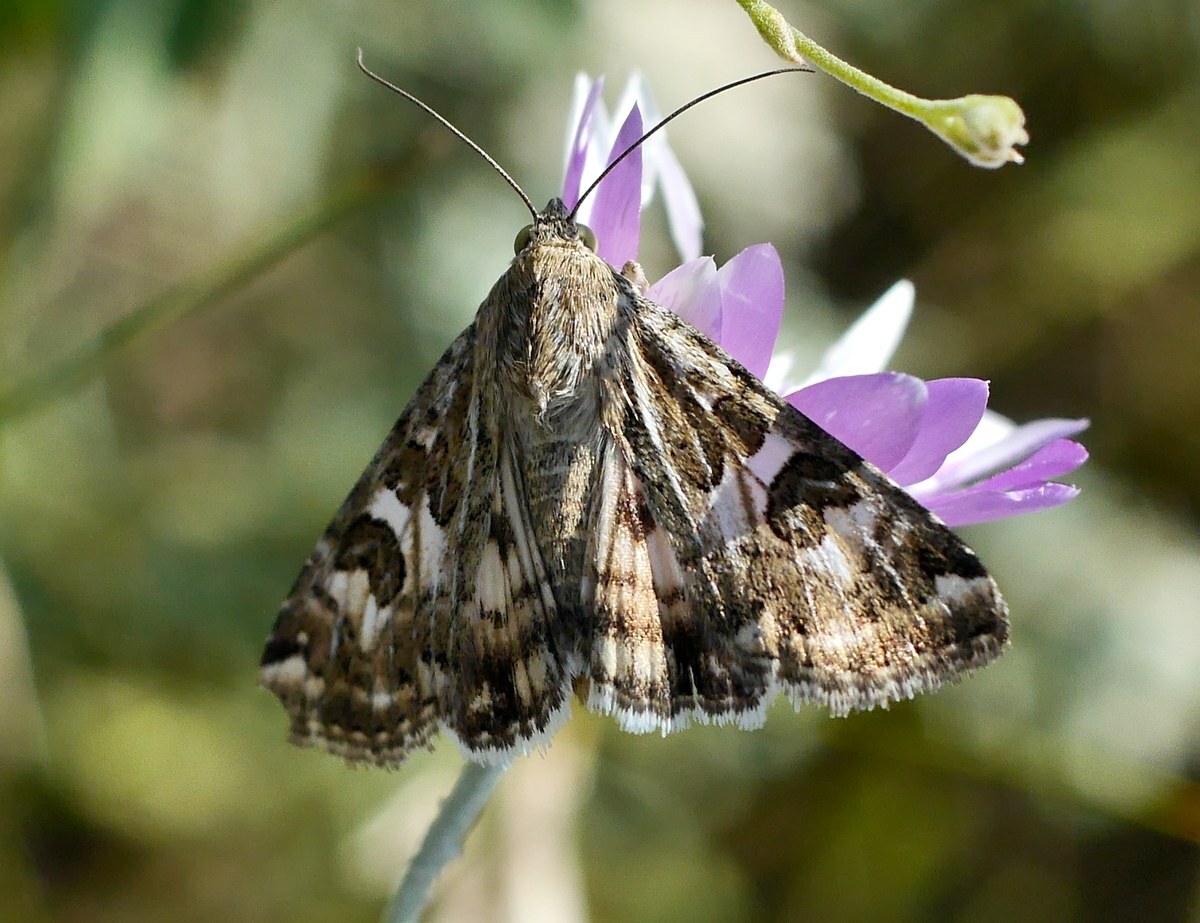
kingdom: Animalia
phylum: Arthropoda
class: Insecta
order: Lepidoptera
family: Noctuidae
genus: Protoschinia
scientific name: Protoschinia scutosa
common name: Spotted clover
